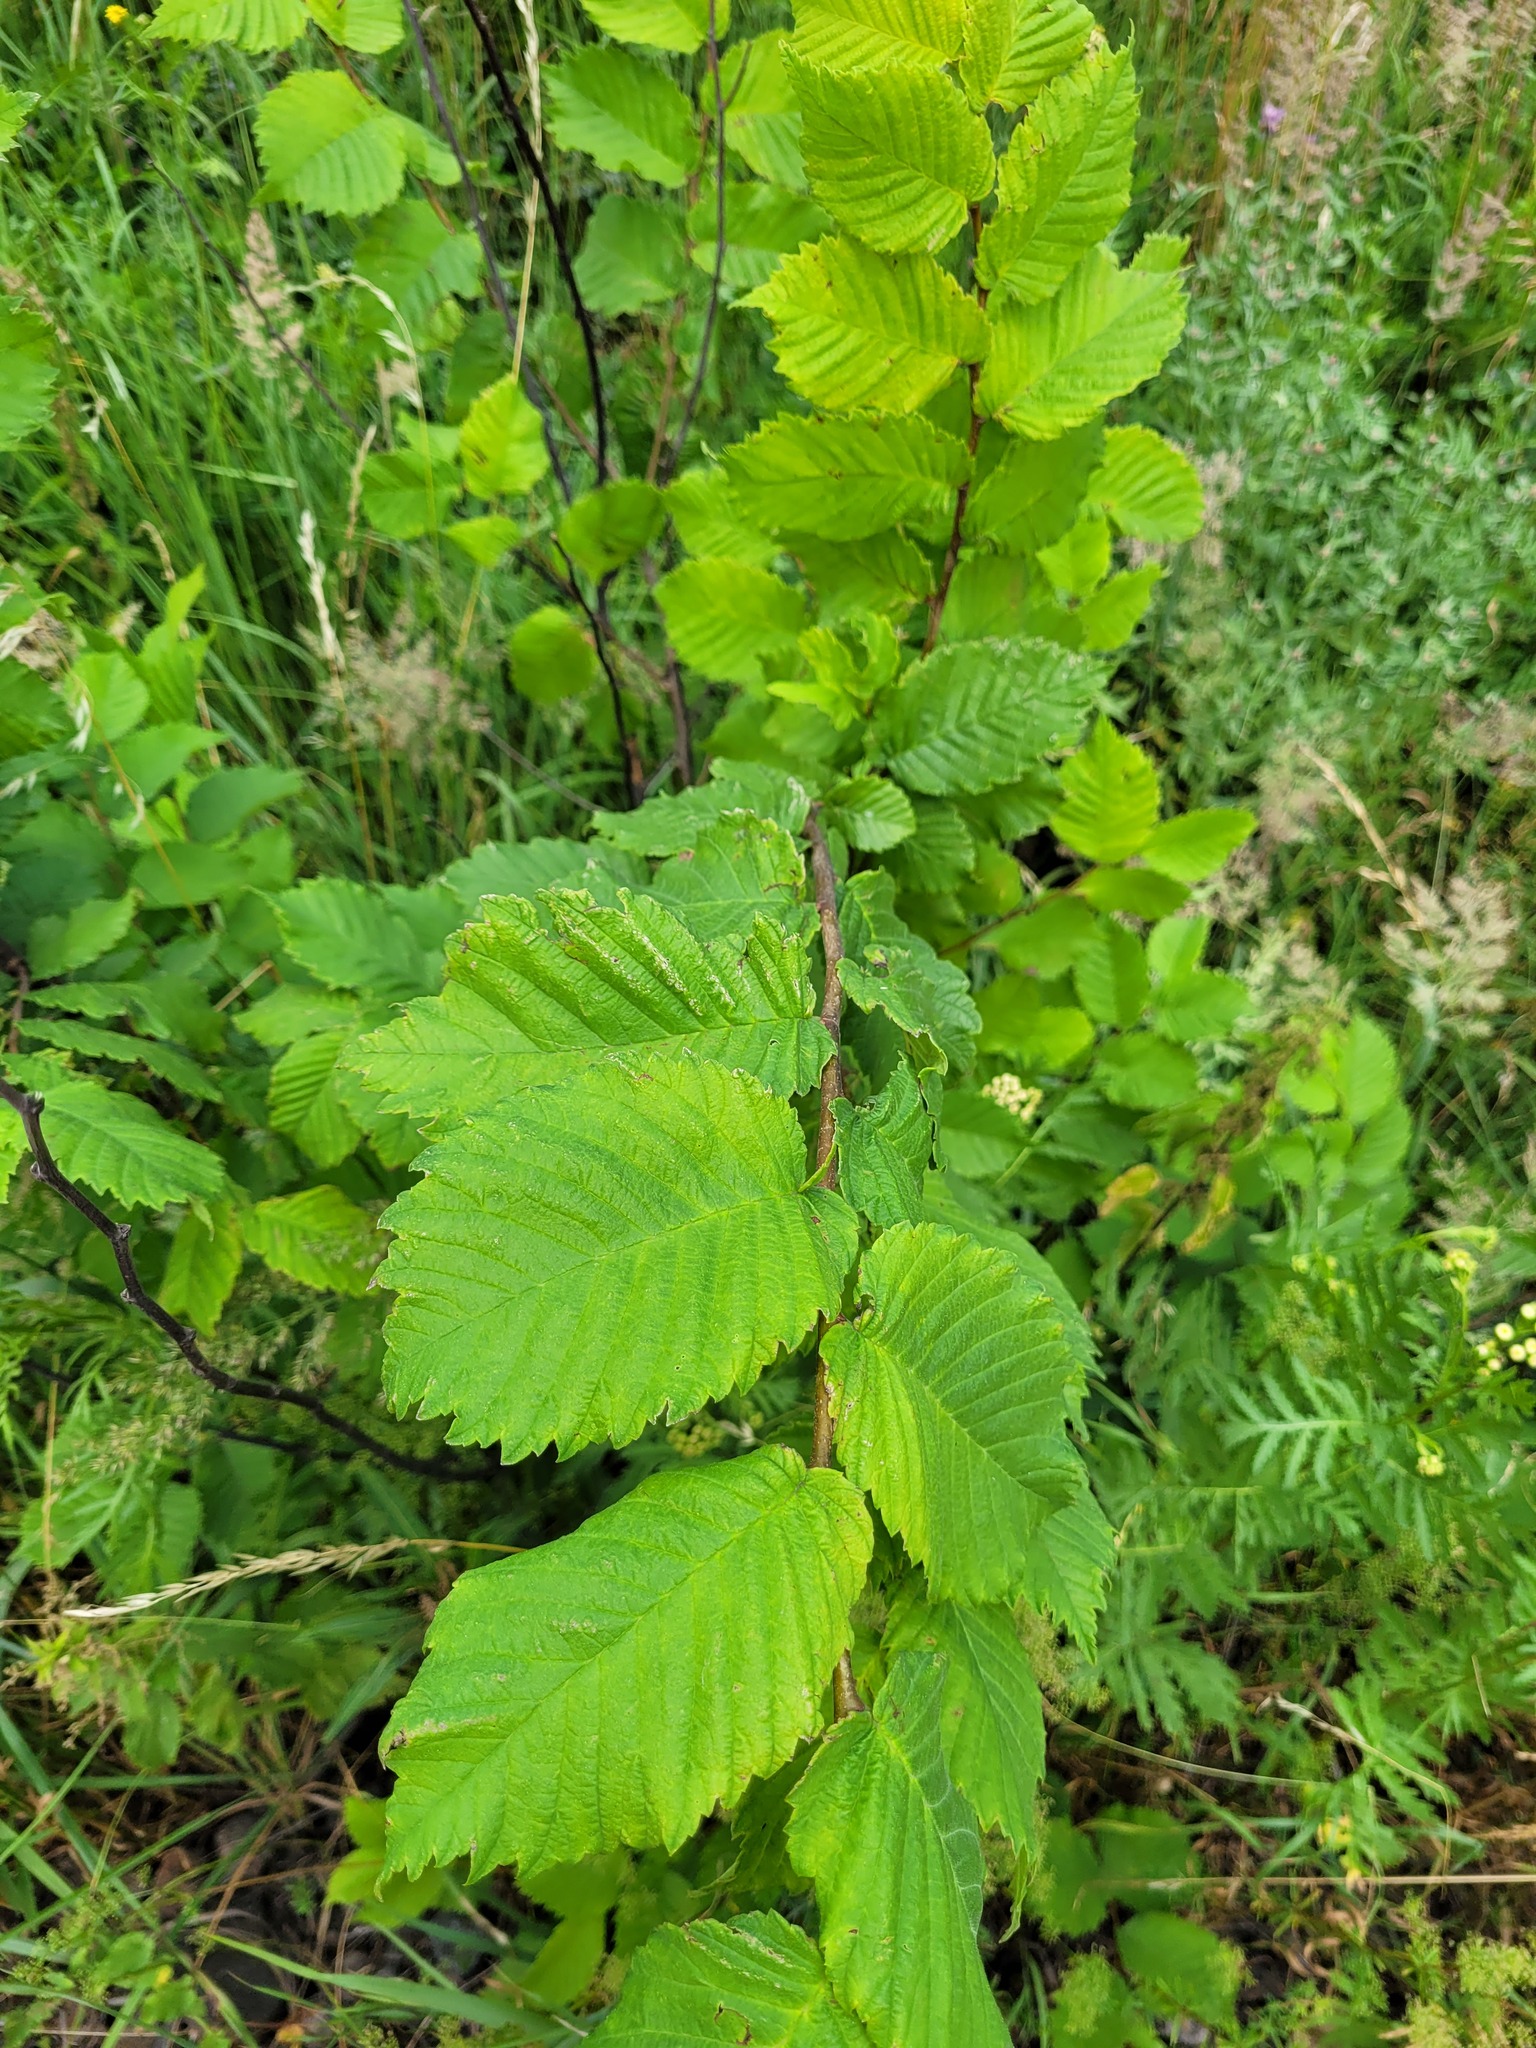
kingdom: Plantae
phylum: Tracheophyta
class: Magnoliopsida
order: Rosales
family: Ulmaceae
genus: Ulmus
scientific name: Ulmus laevis
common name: European white-elm
